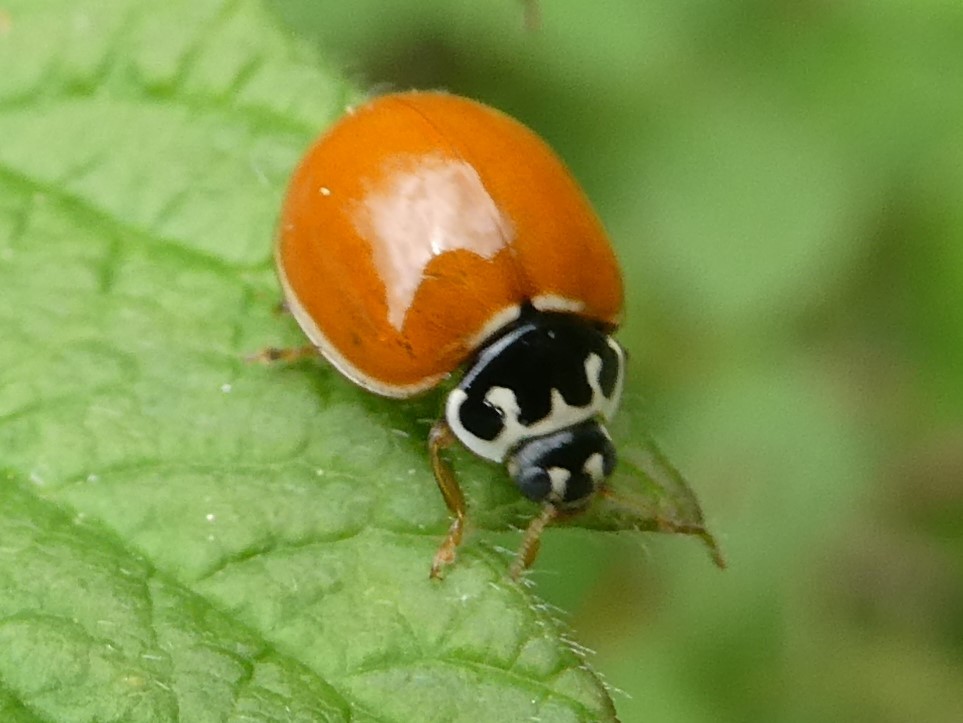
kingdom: Animalia
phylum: Arthropoda
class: Insecta
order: Coleoptera
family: Coccinellidae
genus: Cycloneda
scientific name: Cycloneda munda
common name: Polished lady beetle
